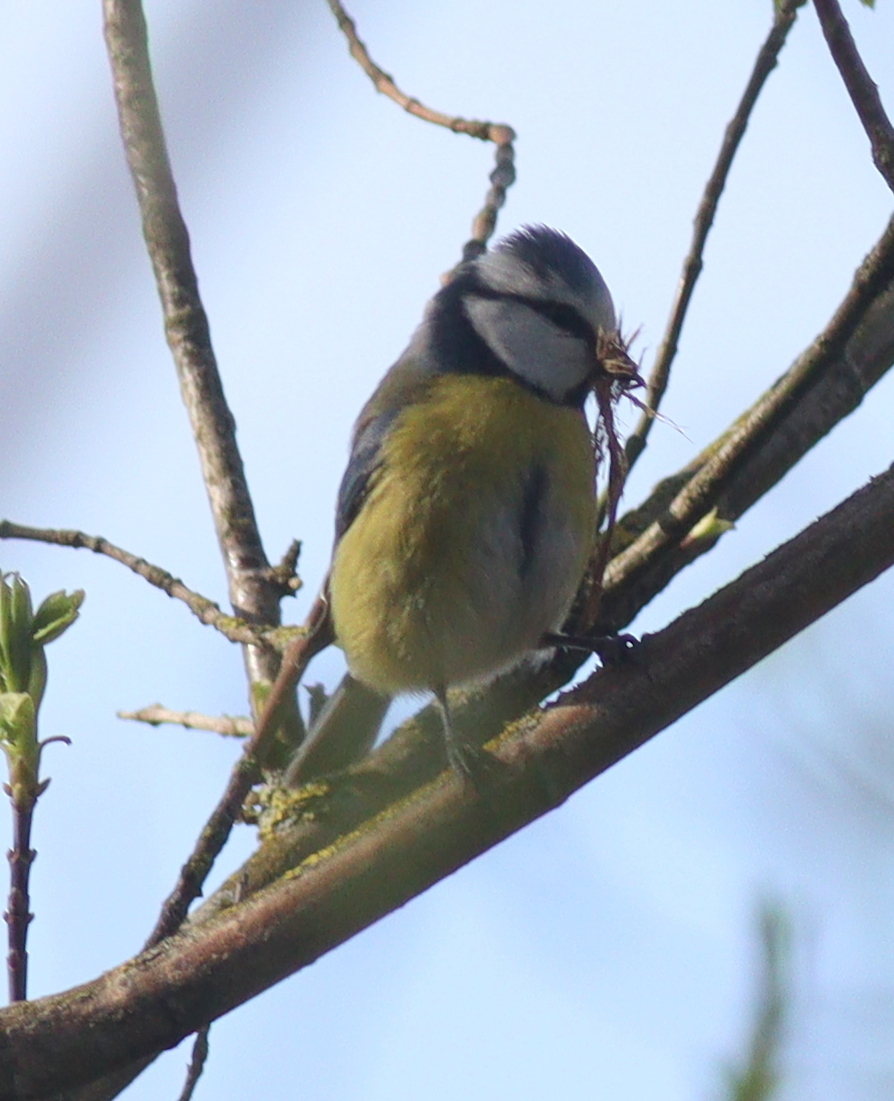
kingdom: Animalia
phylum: Chordata
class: Aves
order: Passeriformes
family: Paridae
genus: Cyanistes
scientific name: Cyanistes caeruleus
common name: Eurasian blue tit
